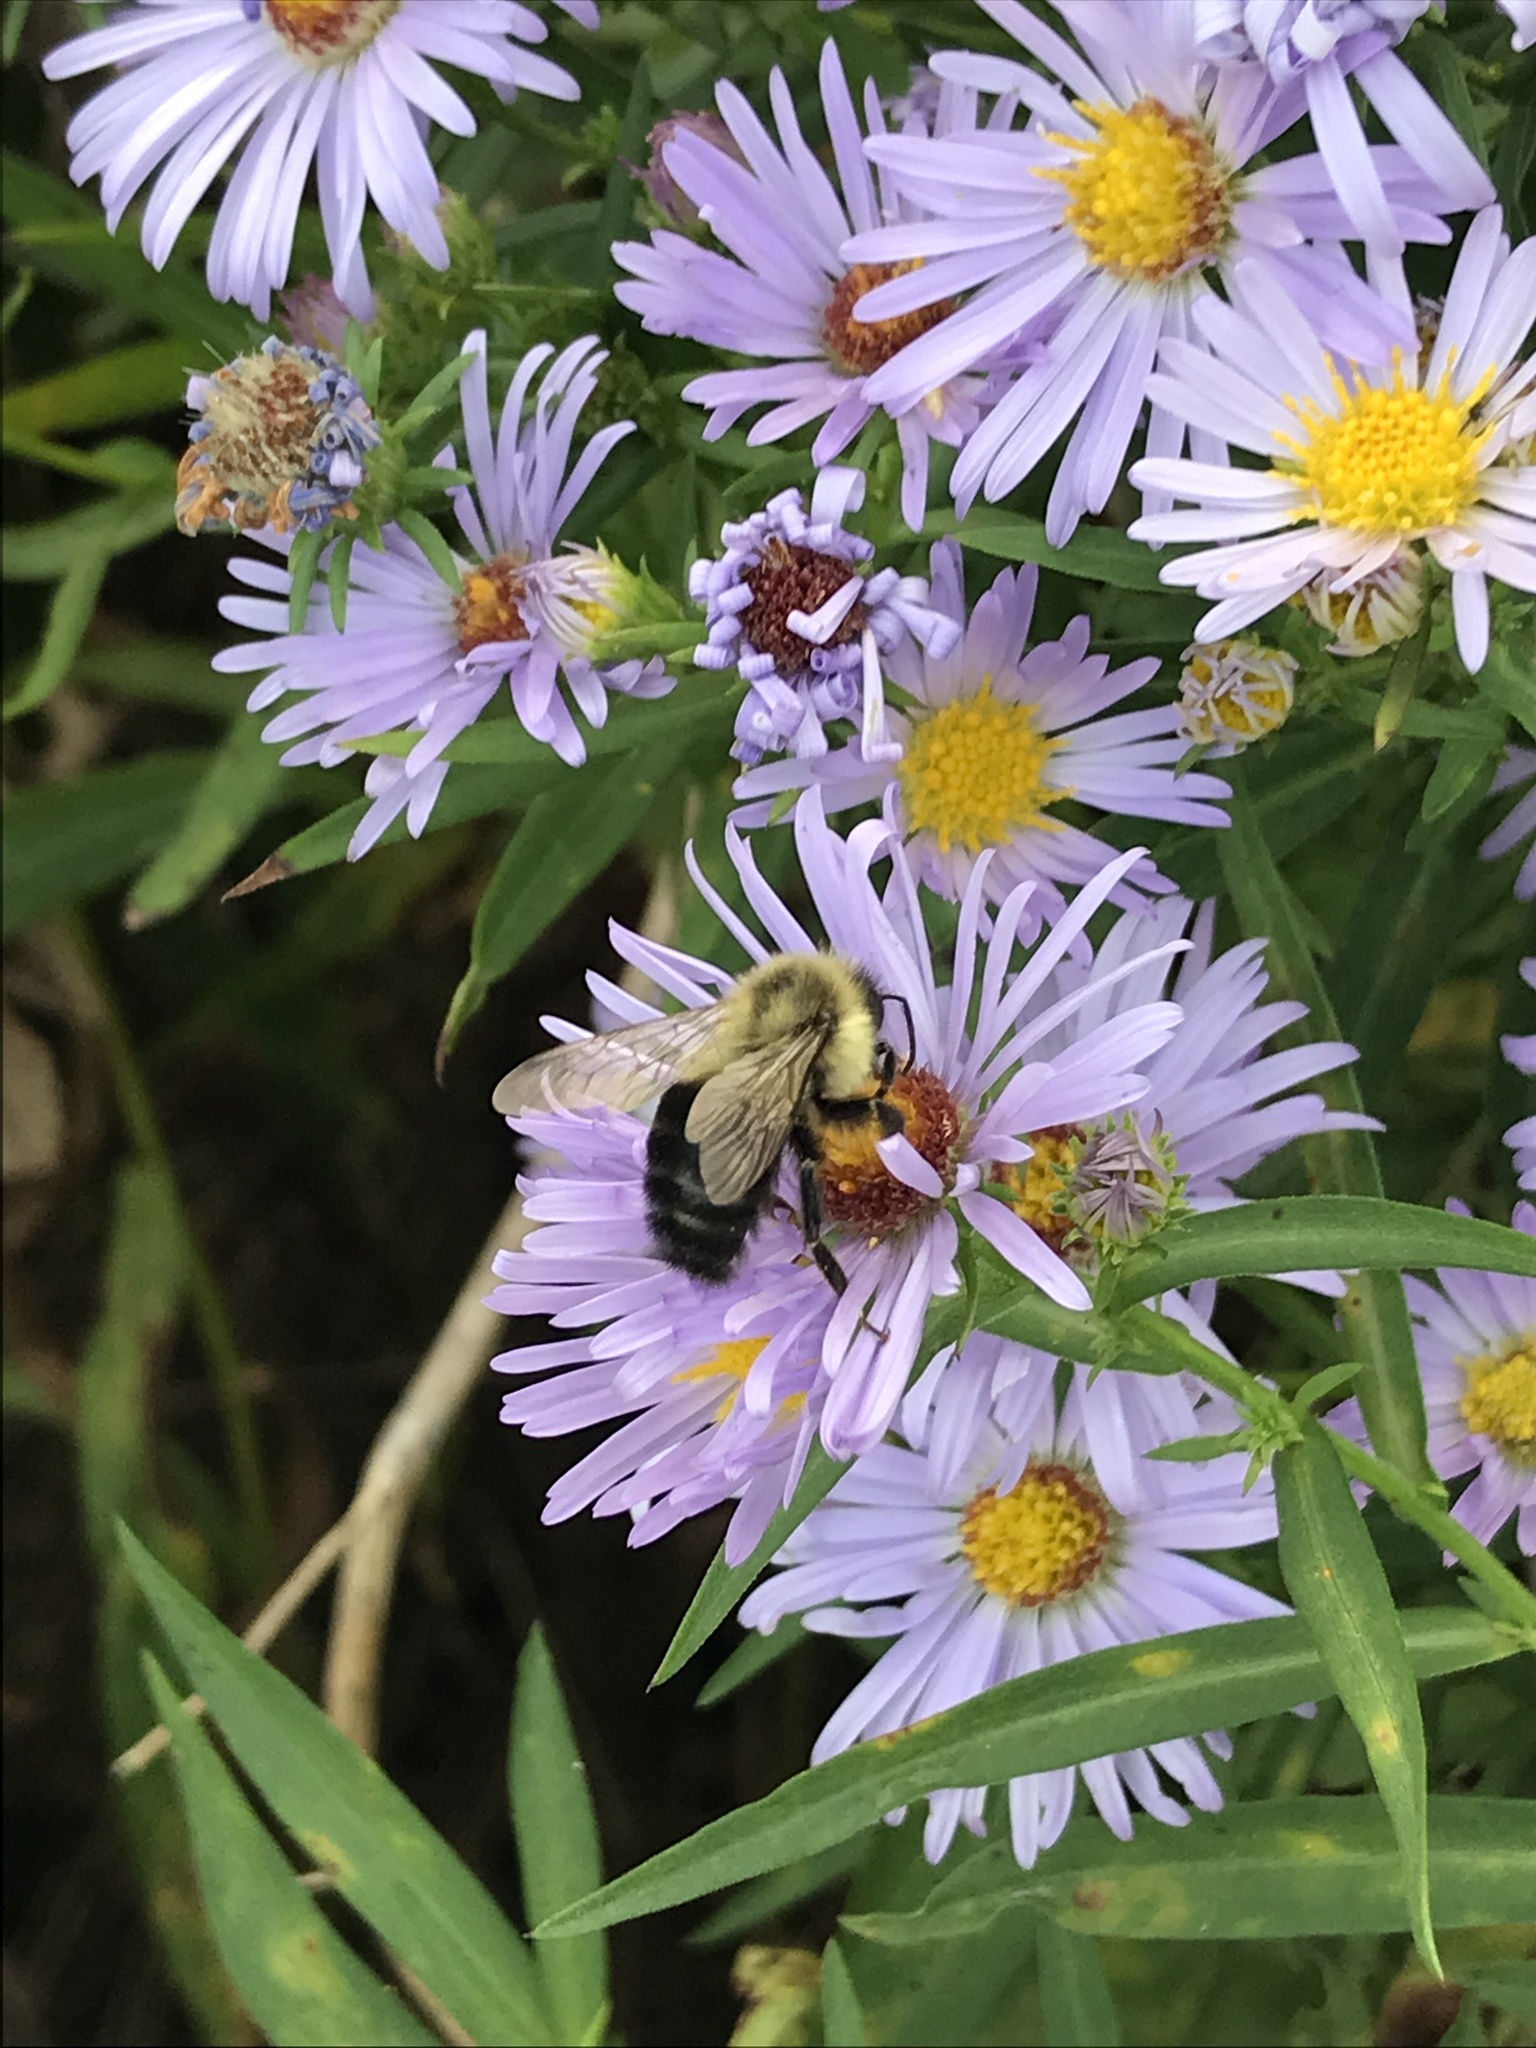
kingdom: Animalia
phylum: Arthropoda
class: Insecta
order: Hymenoptera
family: Apidae
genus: Bombus
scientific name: Bombus impatiens
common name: Common eastern bumble bee
